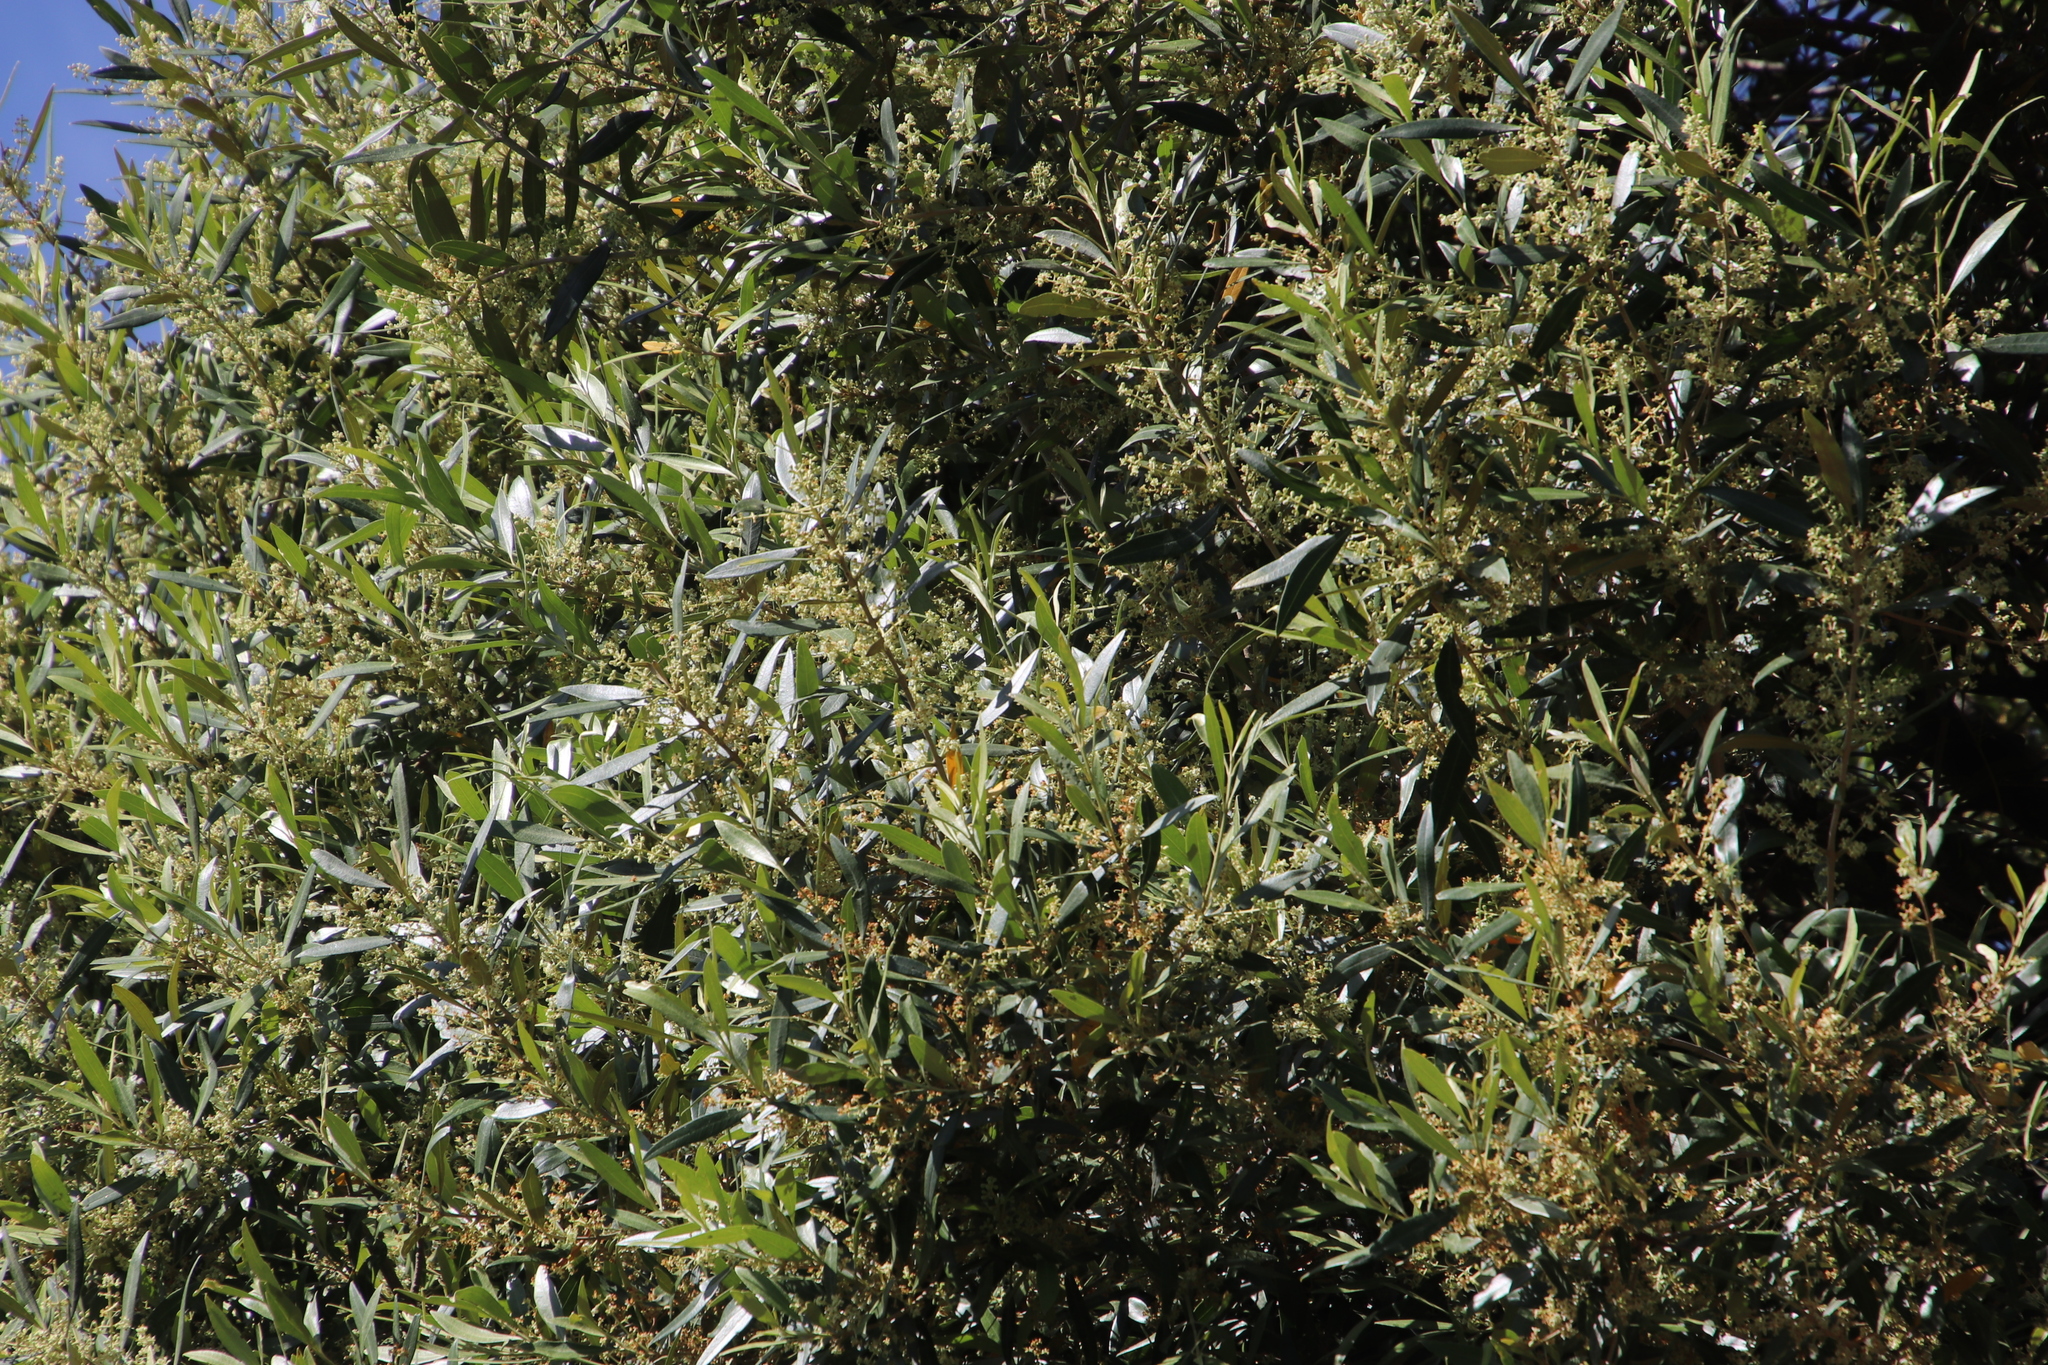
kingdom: Plantae
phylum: Tracheophyta
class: Magnoliopsida
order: Lamiales
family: Oleaceae
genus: Olea
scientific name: Olea europaea
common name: Olive
